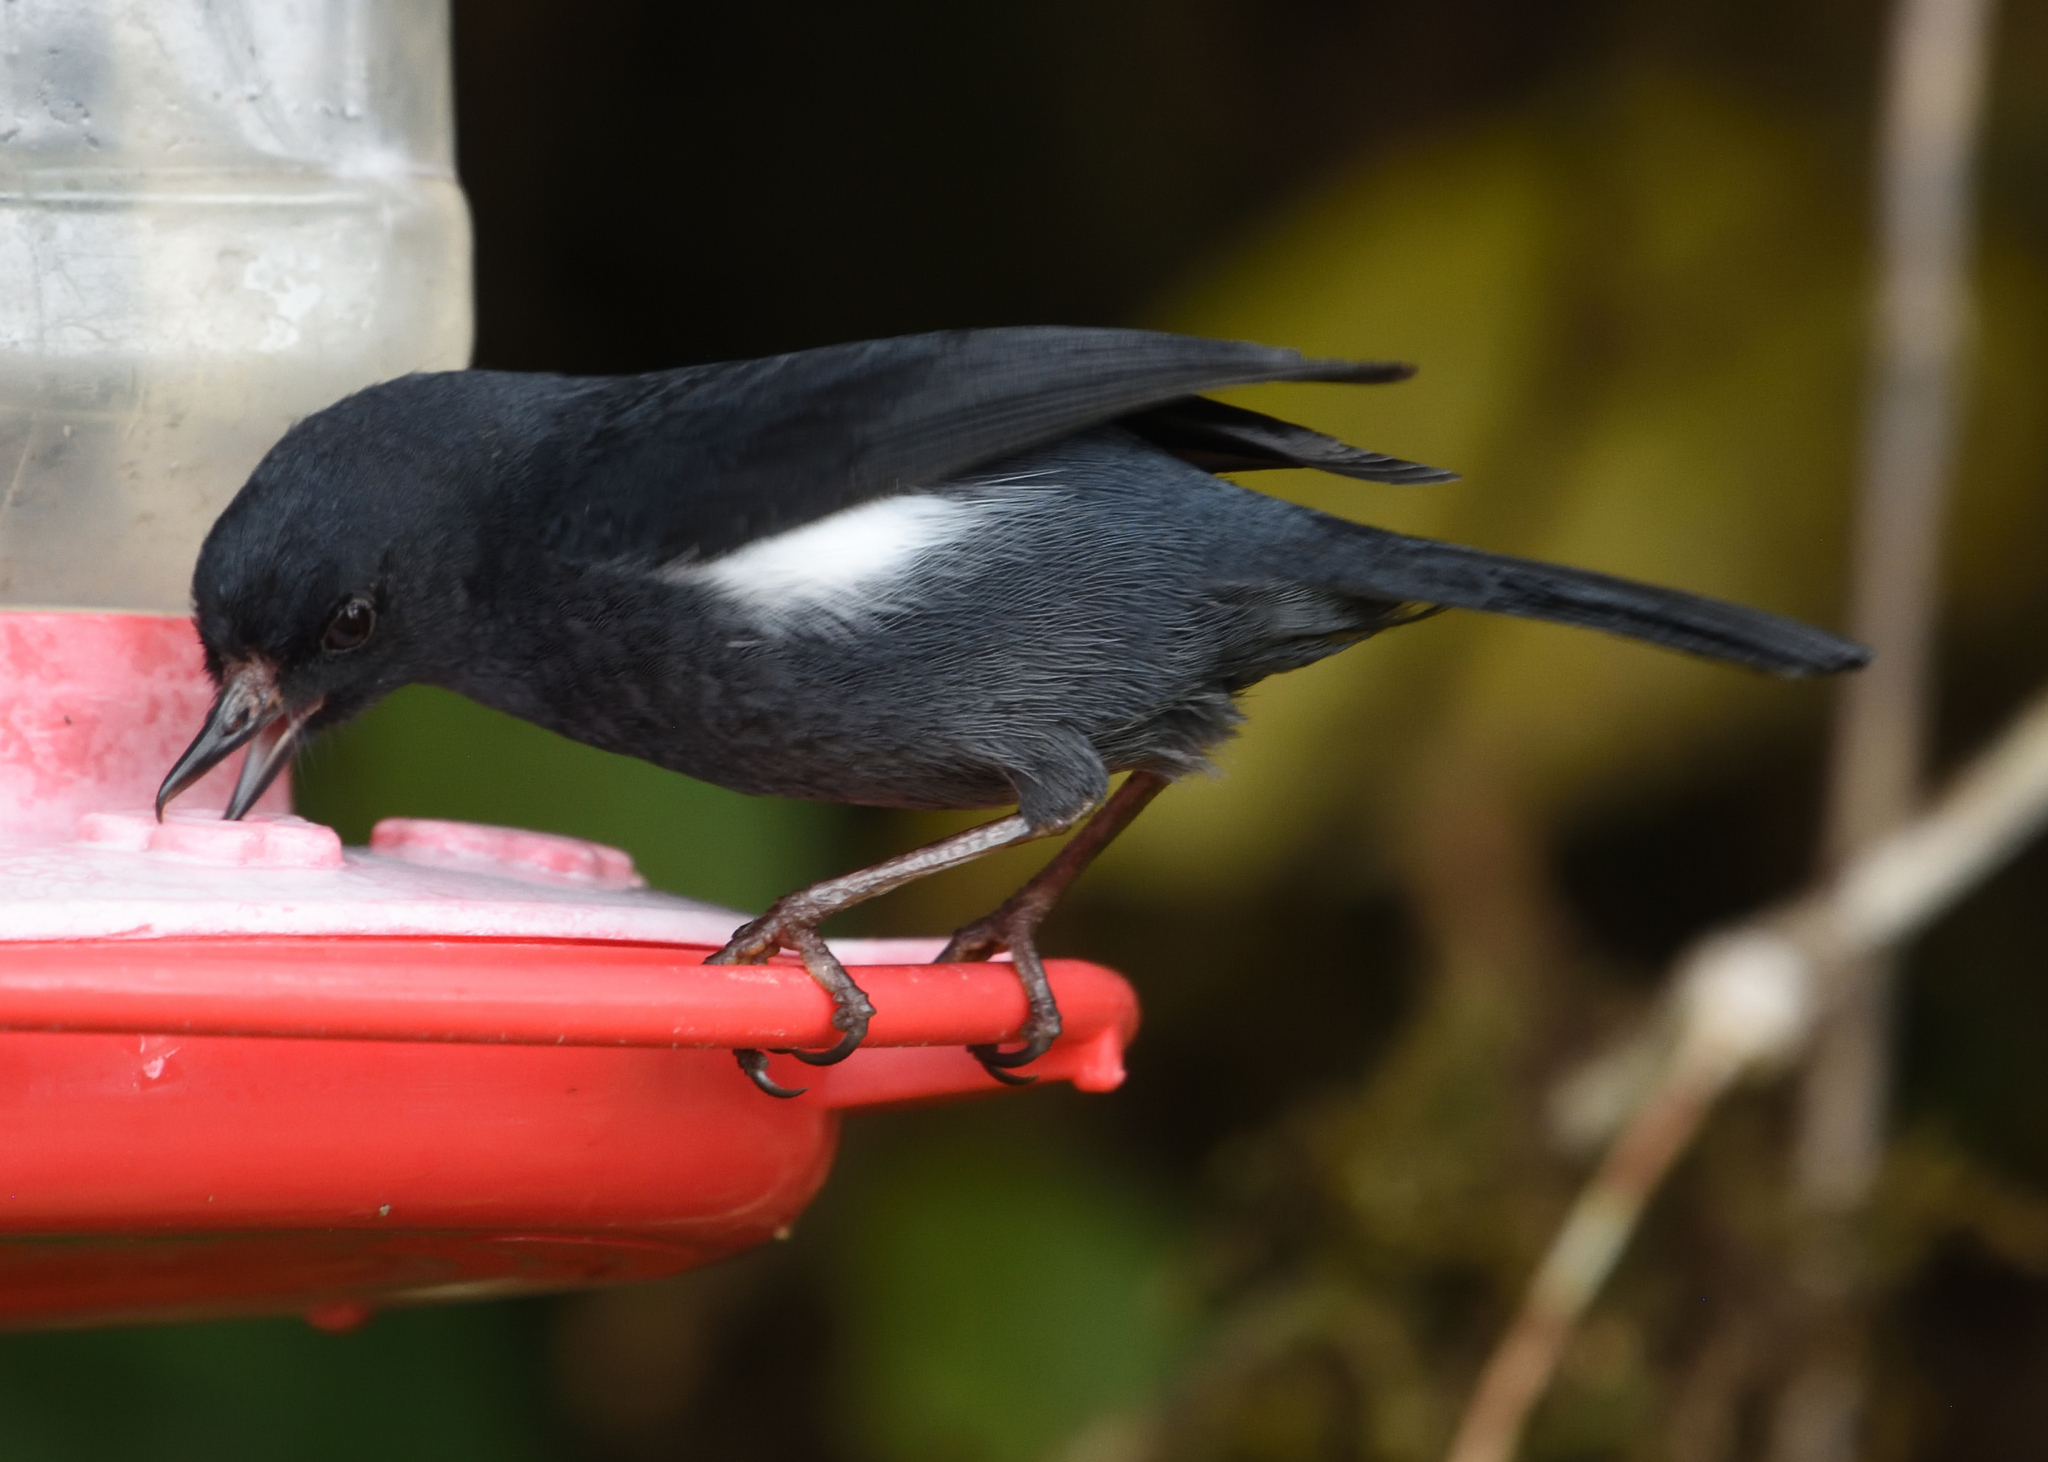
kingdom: Animalia
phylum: Chordata
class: Aves
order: Passeriformes
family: Thraupidae
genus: Diglossa
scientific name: Diglossa albilatera
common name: White-sided flowerpiercer
